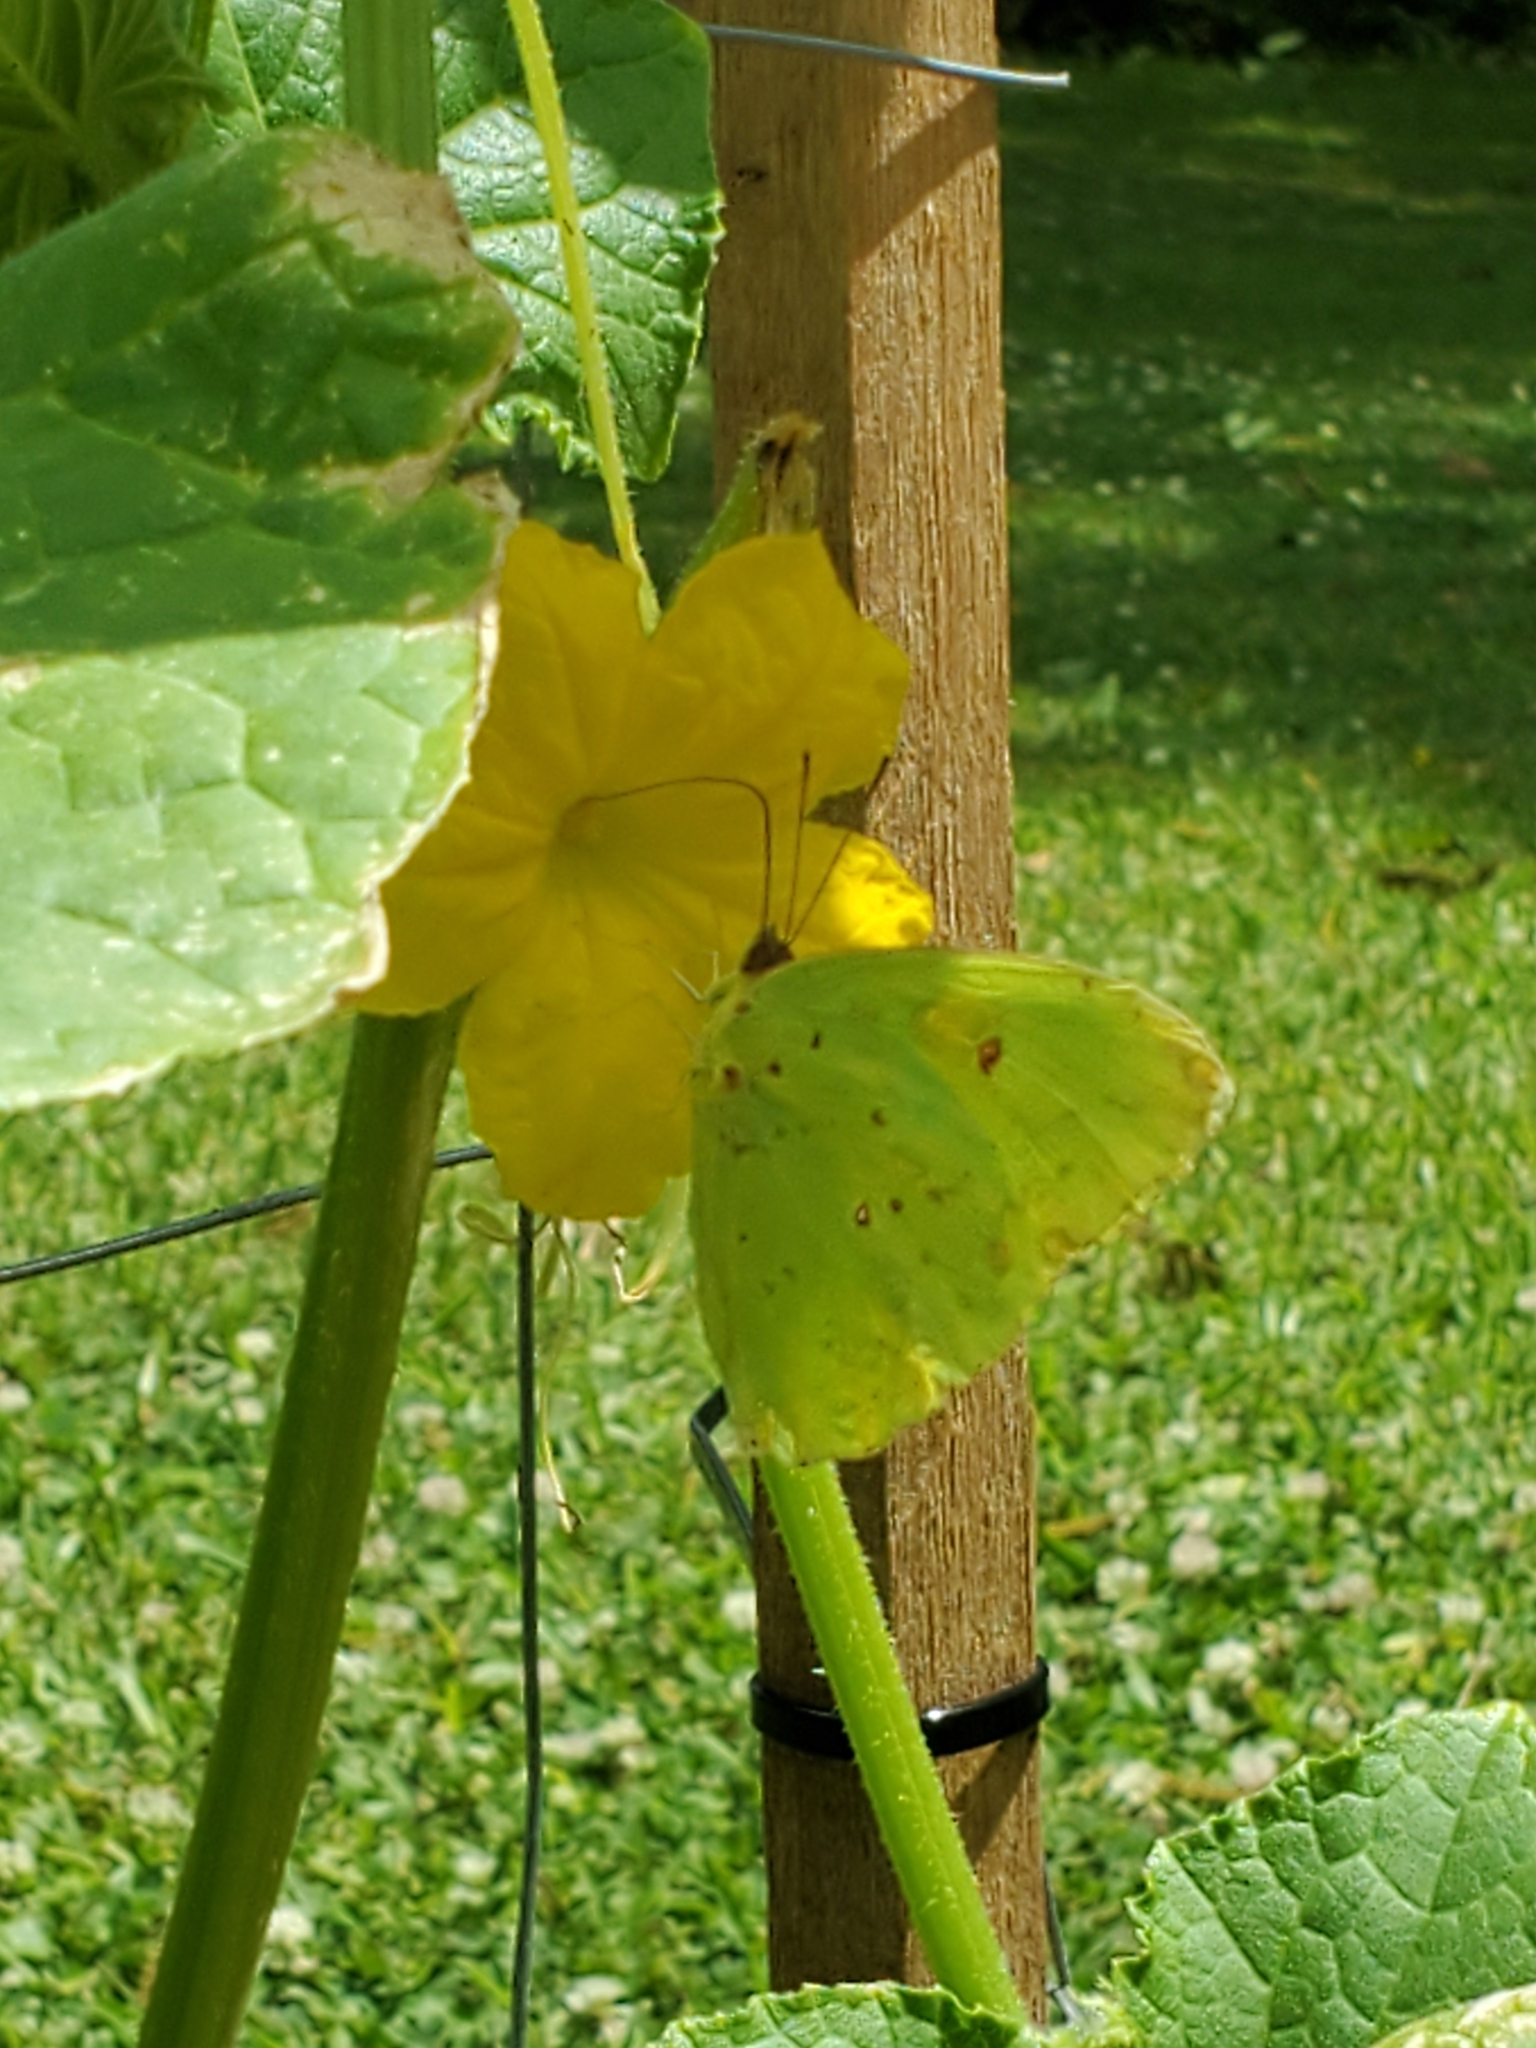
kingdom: Animalia
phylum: Arthropoda
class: Insecta
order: Lepidoptera
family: Pieridae
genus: Phoebis
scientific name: Phoebis sennae
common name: Cloudless sulphur
